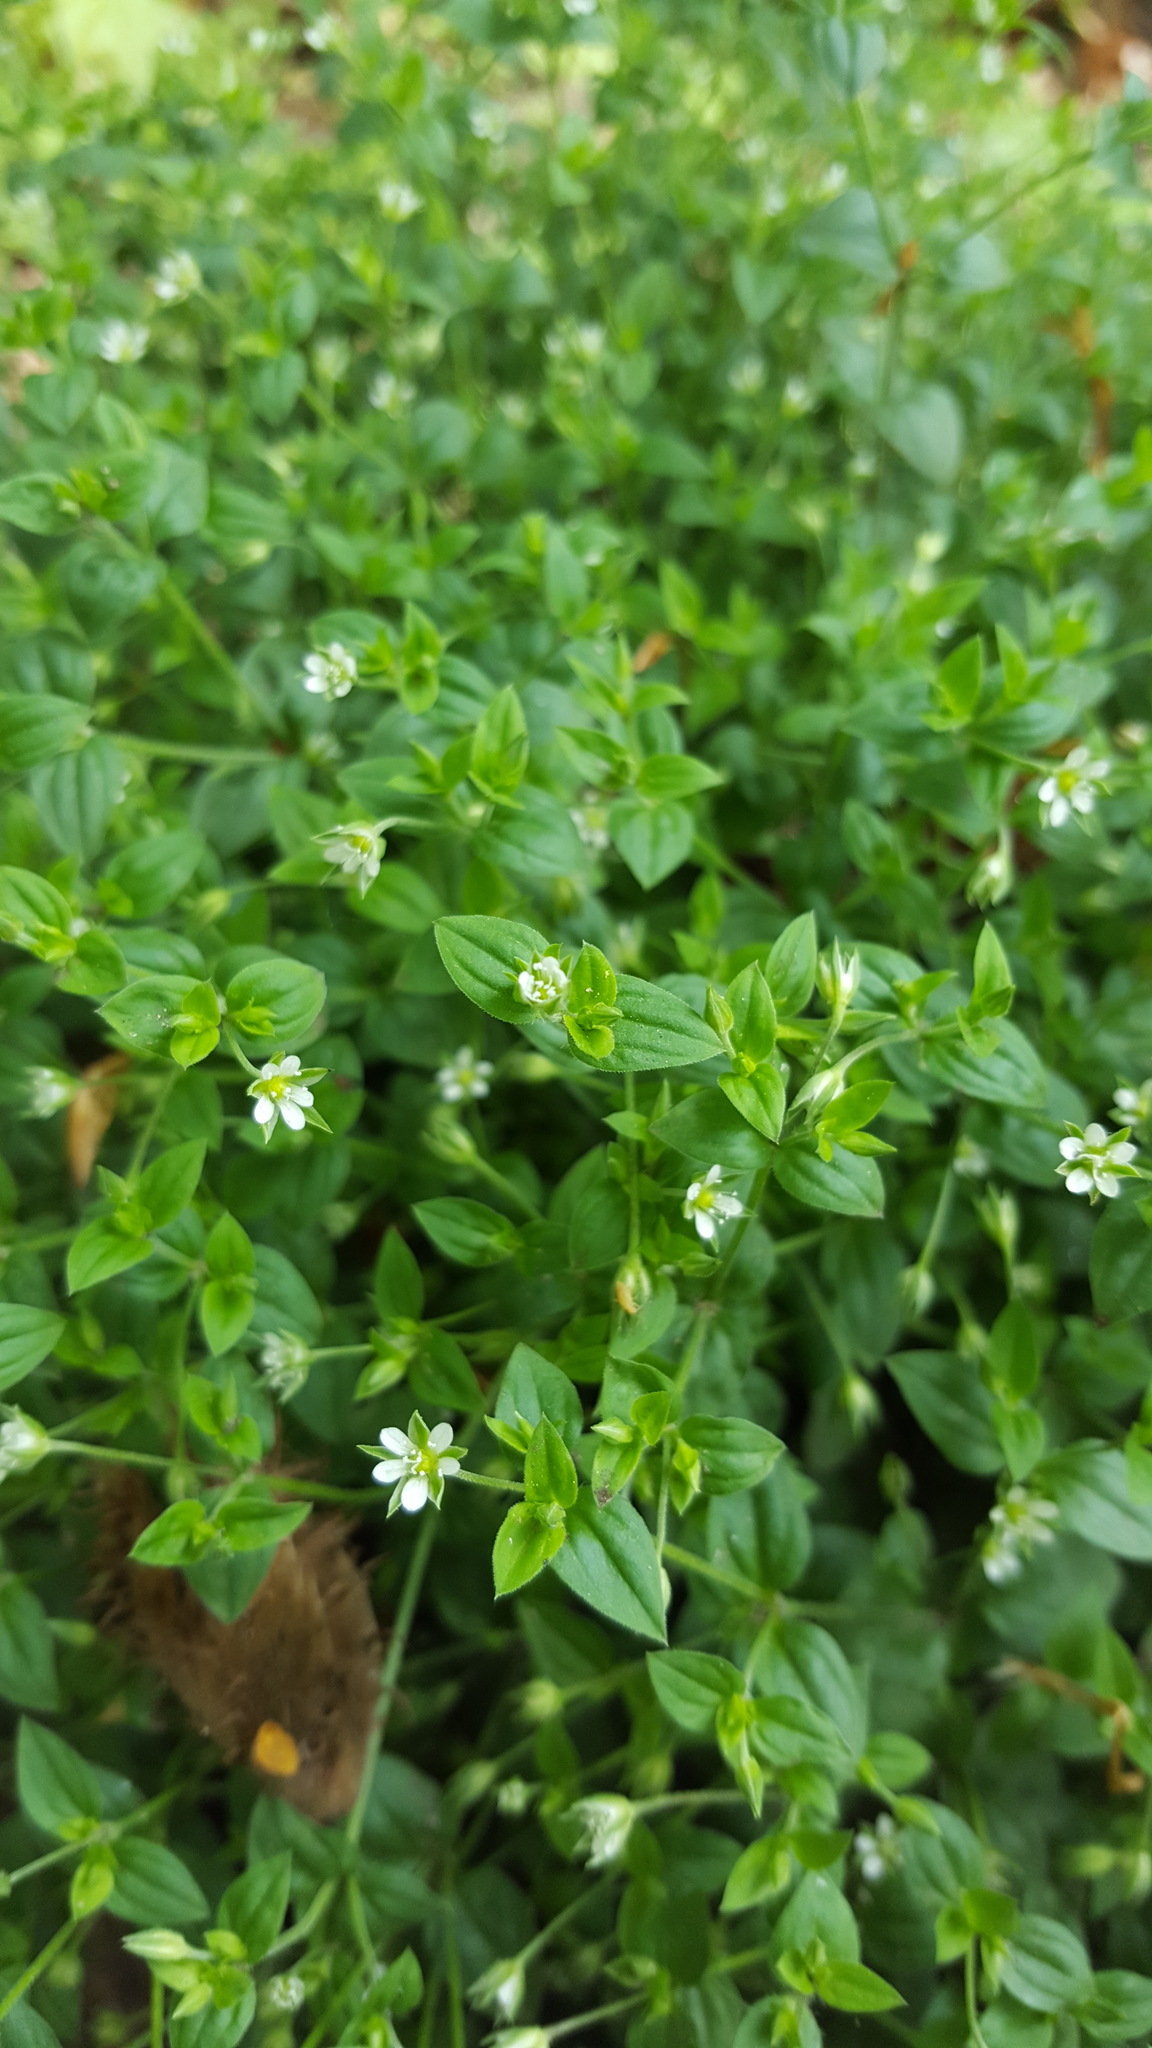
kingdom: Plantae
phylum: Tracheophyta
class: Magnoliopsida
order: Caryophyllales
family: Caryophyllaceae
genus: Moehringia
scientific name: Moehringia trinervia
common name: Three-nerved sandwort
